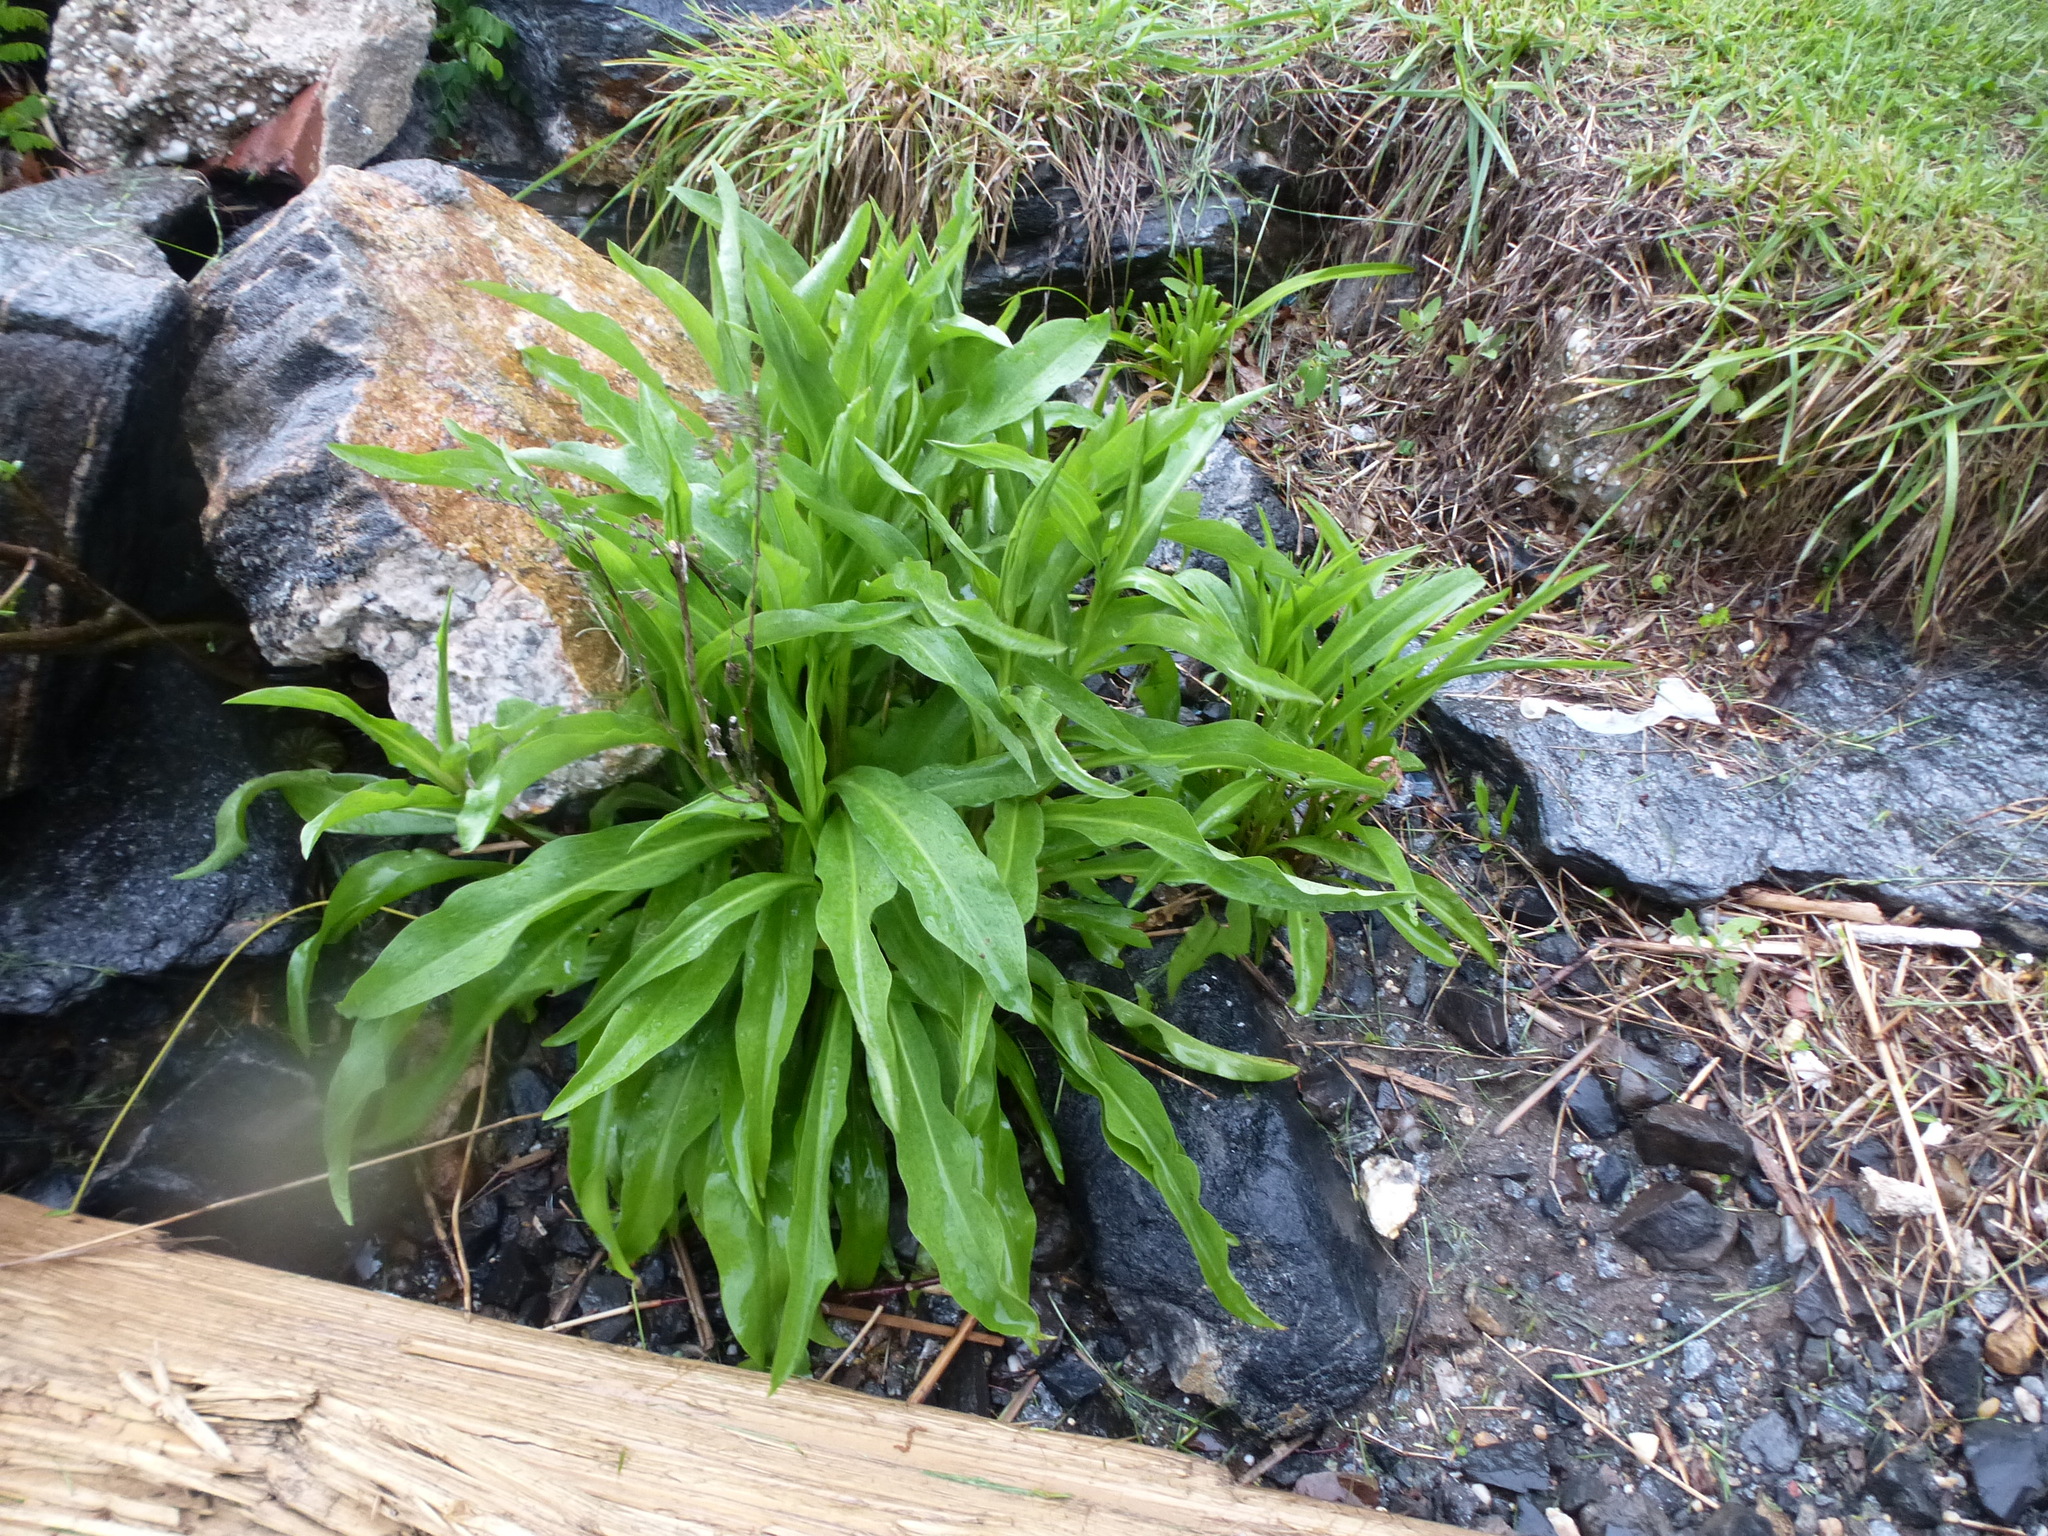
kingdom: Plantae
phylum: Tracheophyta
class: Magnoliopsida
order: Asterales
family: Asteraceae
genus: Solidago
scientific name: Solidago sempervirens
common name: Salt-marsh goldenrod
